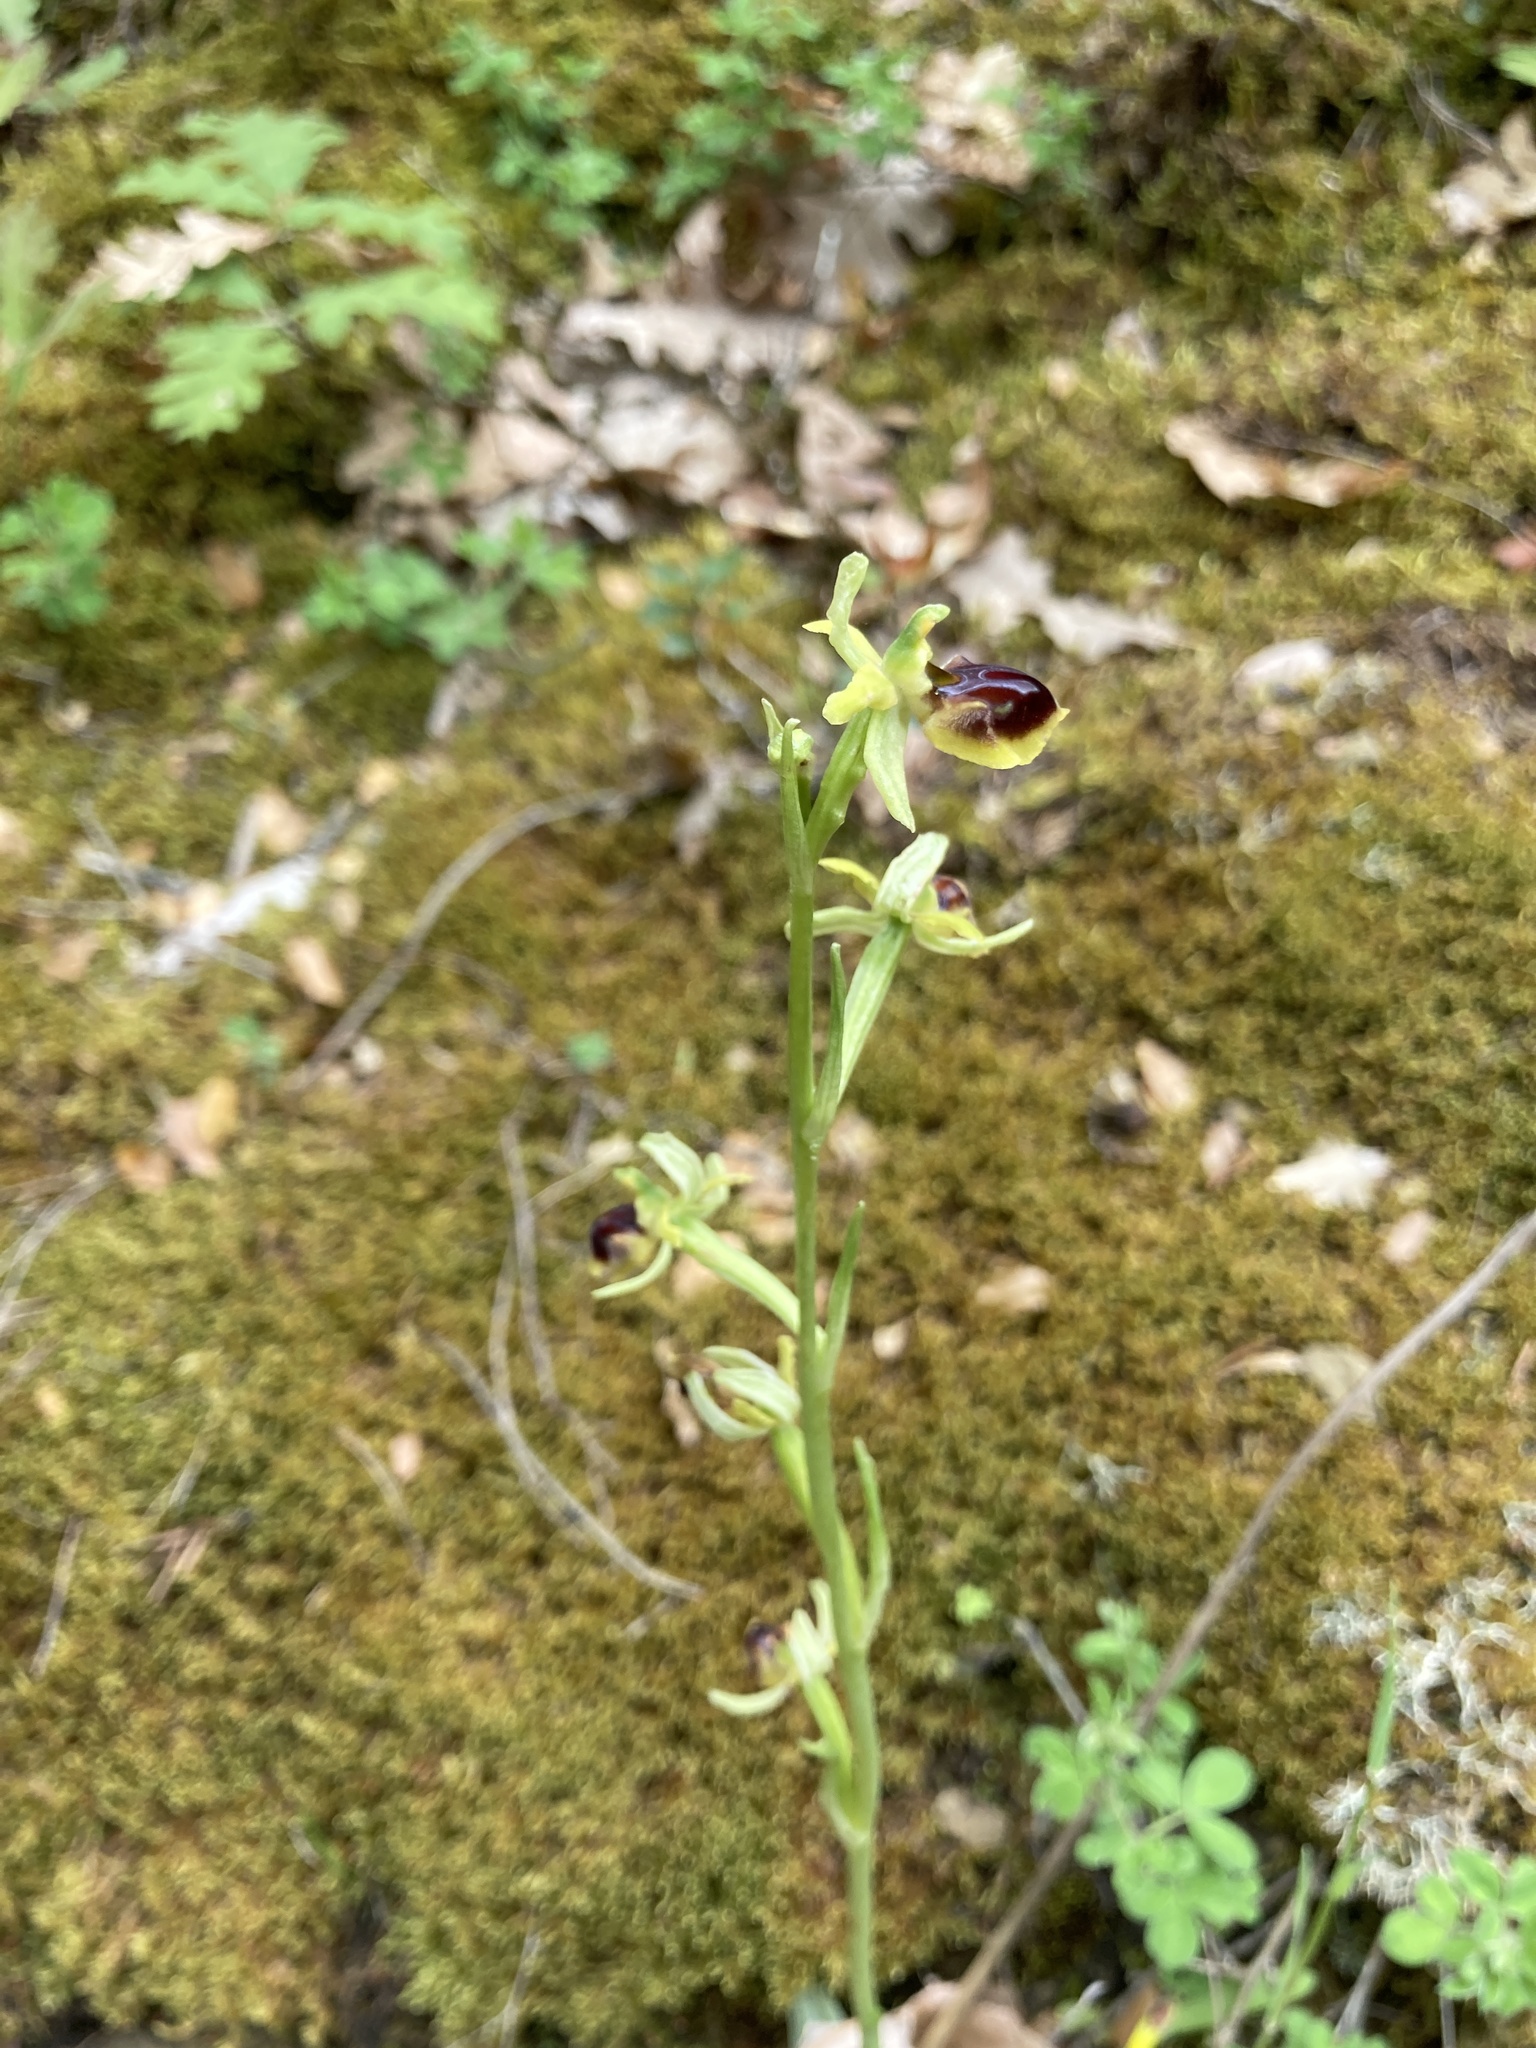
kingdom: Plantae
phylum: Tracheophyta
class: Liliopsida
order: Asparagales
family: Orchidaceae
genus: Ophrys
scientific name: Ophrys sphegodes
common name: Early spider-orchid
